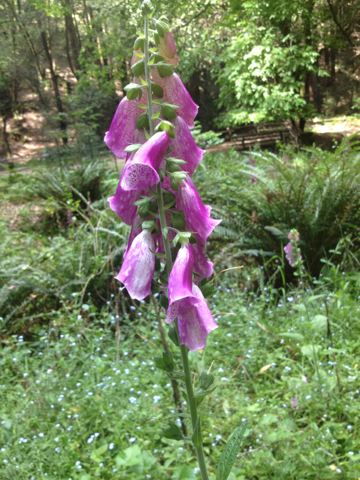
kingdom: Plantae
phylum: Tracheophyta
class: Magnoliopsida
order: Lamiales
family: Plantaginaceae
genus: Digitalis
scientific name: Digitalis purpurea
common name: Foxglove
